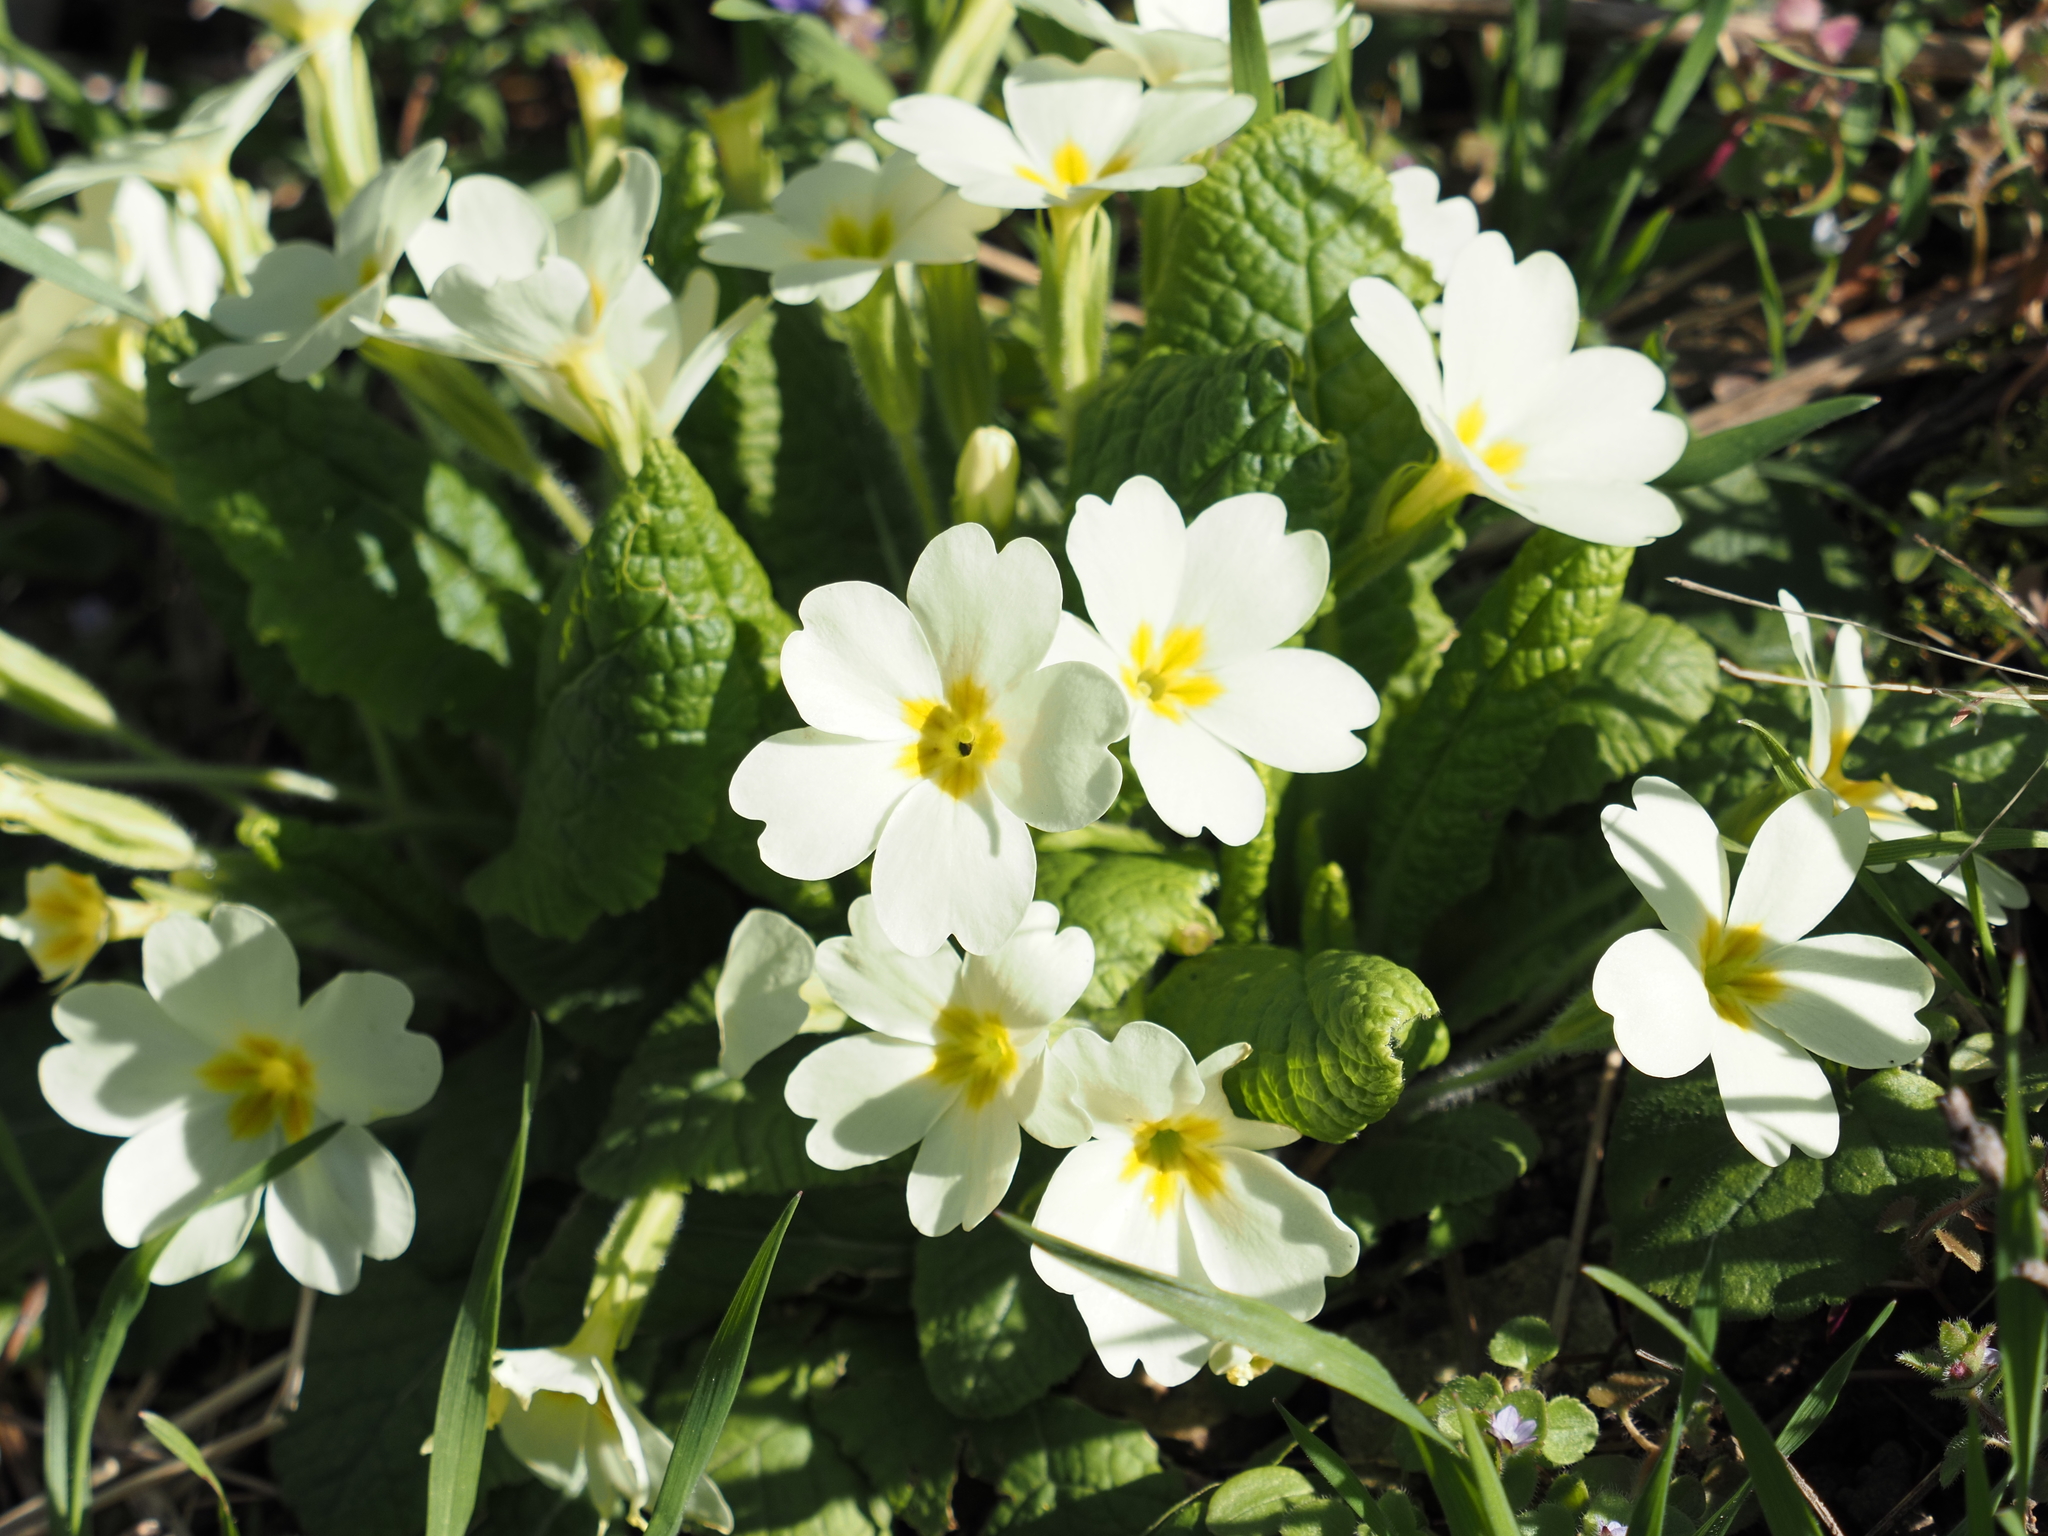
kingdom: Plantae
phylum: Tracheophyta
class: Magnoliopsida
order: Ericales
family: Primulaceae
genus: Primula
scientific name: Primula vulgaris
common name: Primrose
